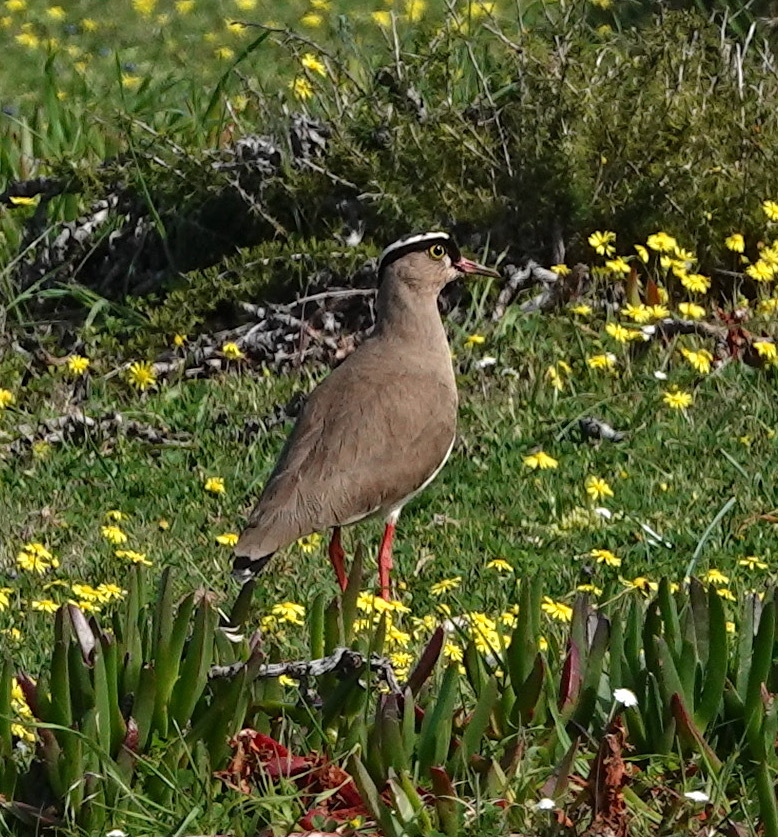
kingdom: Animalia
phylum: Chordata
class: Aves
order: Charadriiformes
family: Charadriidae
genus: Vanellus
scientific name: Vanellus coronatus
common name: Crowned lapwing
